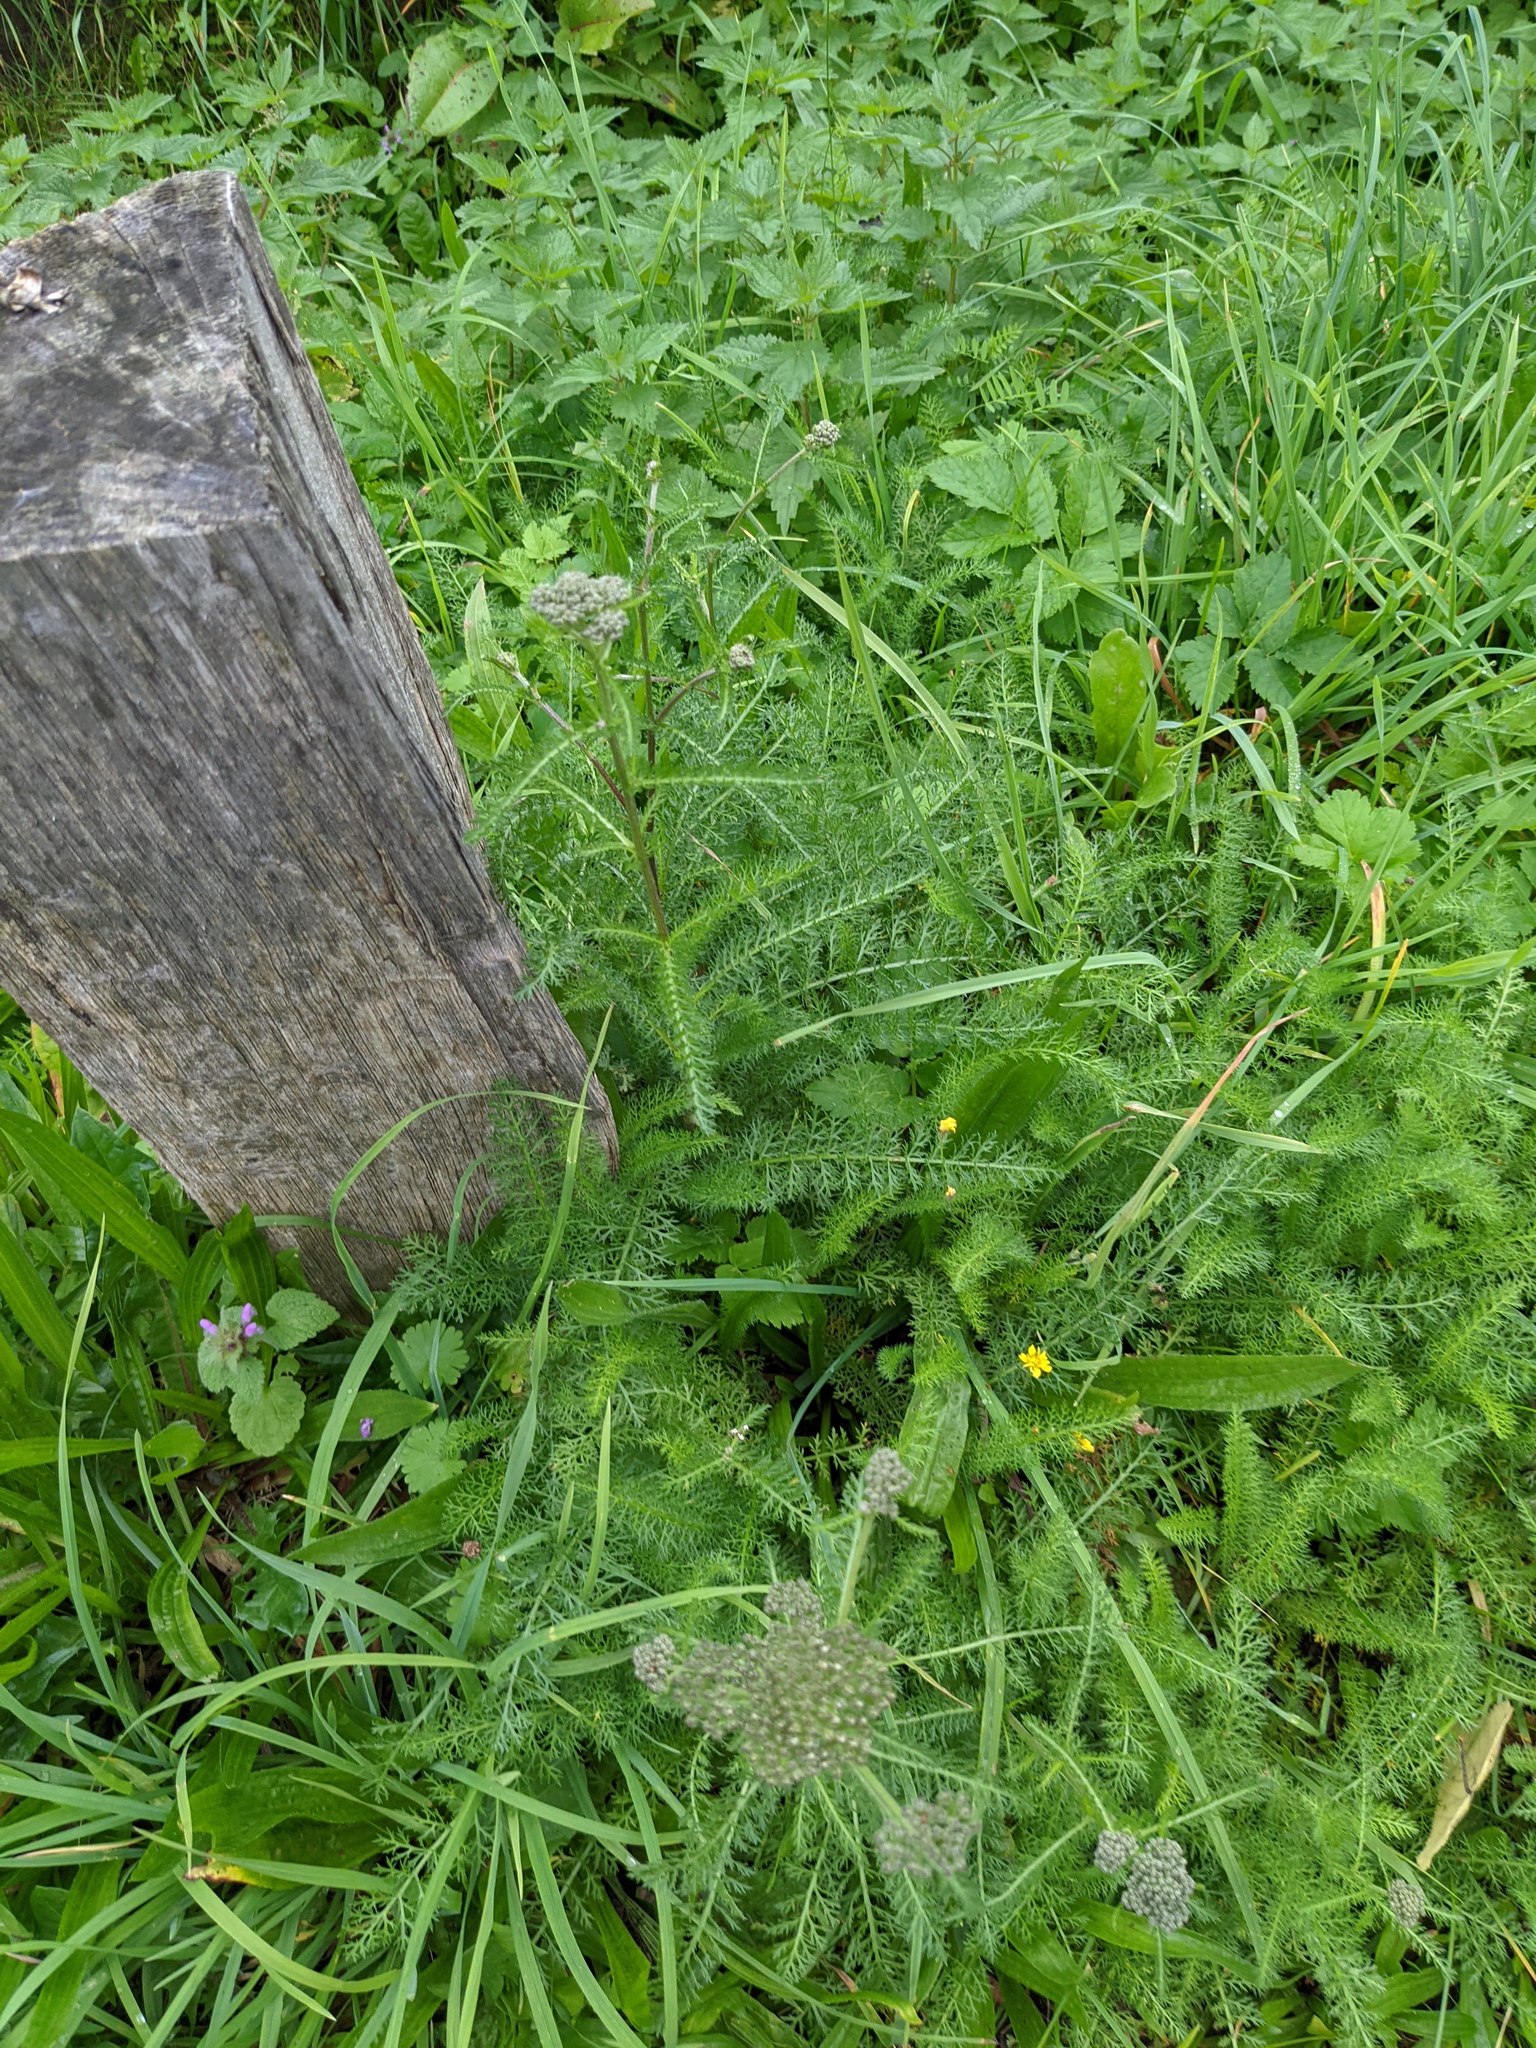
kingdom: Plantae
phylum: Tracheophyta
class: Magnoliopsida
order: Asterales
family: Asteraceae
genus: Achillea
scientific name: Achillea millefolium
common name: Yarrow
